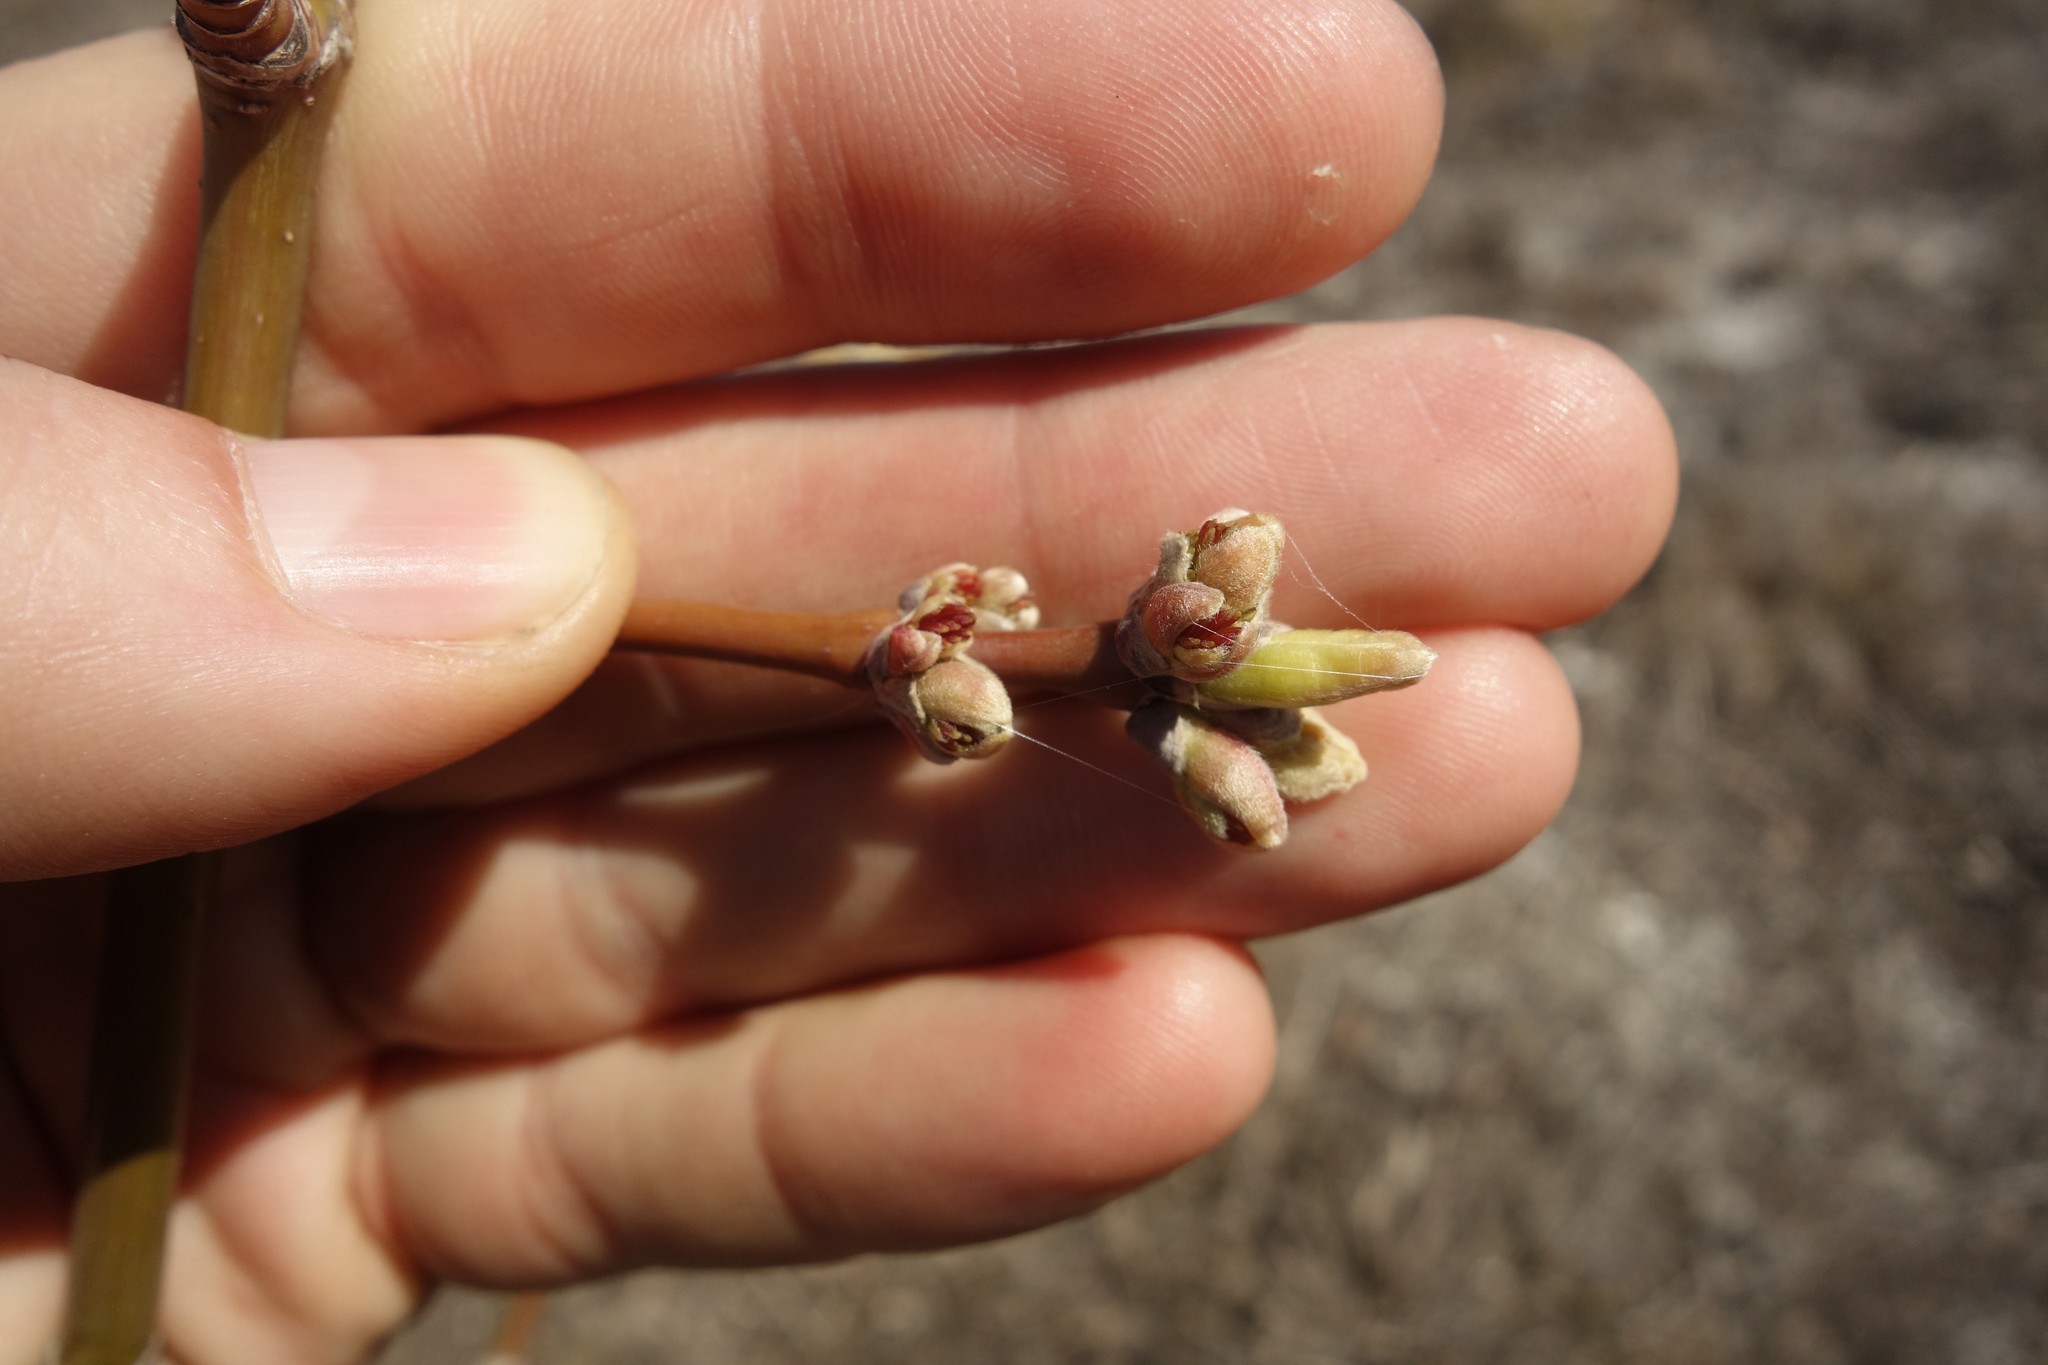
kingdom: Plantae
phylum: Tracheophyta
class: Magnoliopsida
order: Sapindales
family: Sapindaceae
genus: Acer
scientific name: Acer negundo
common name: Ashleaf maple
